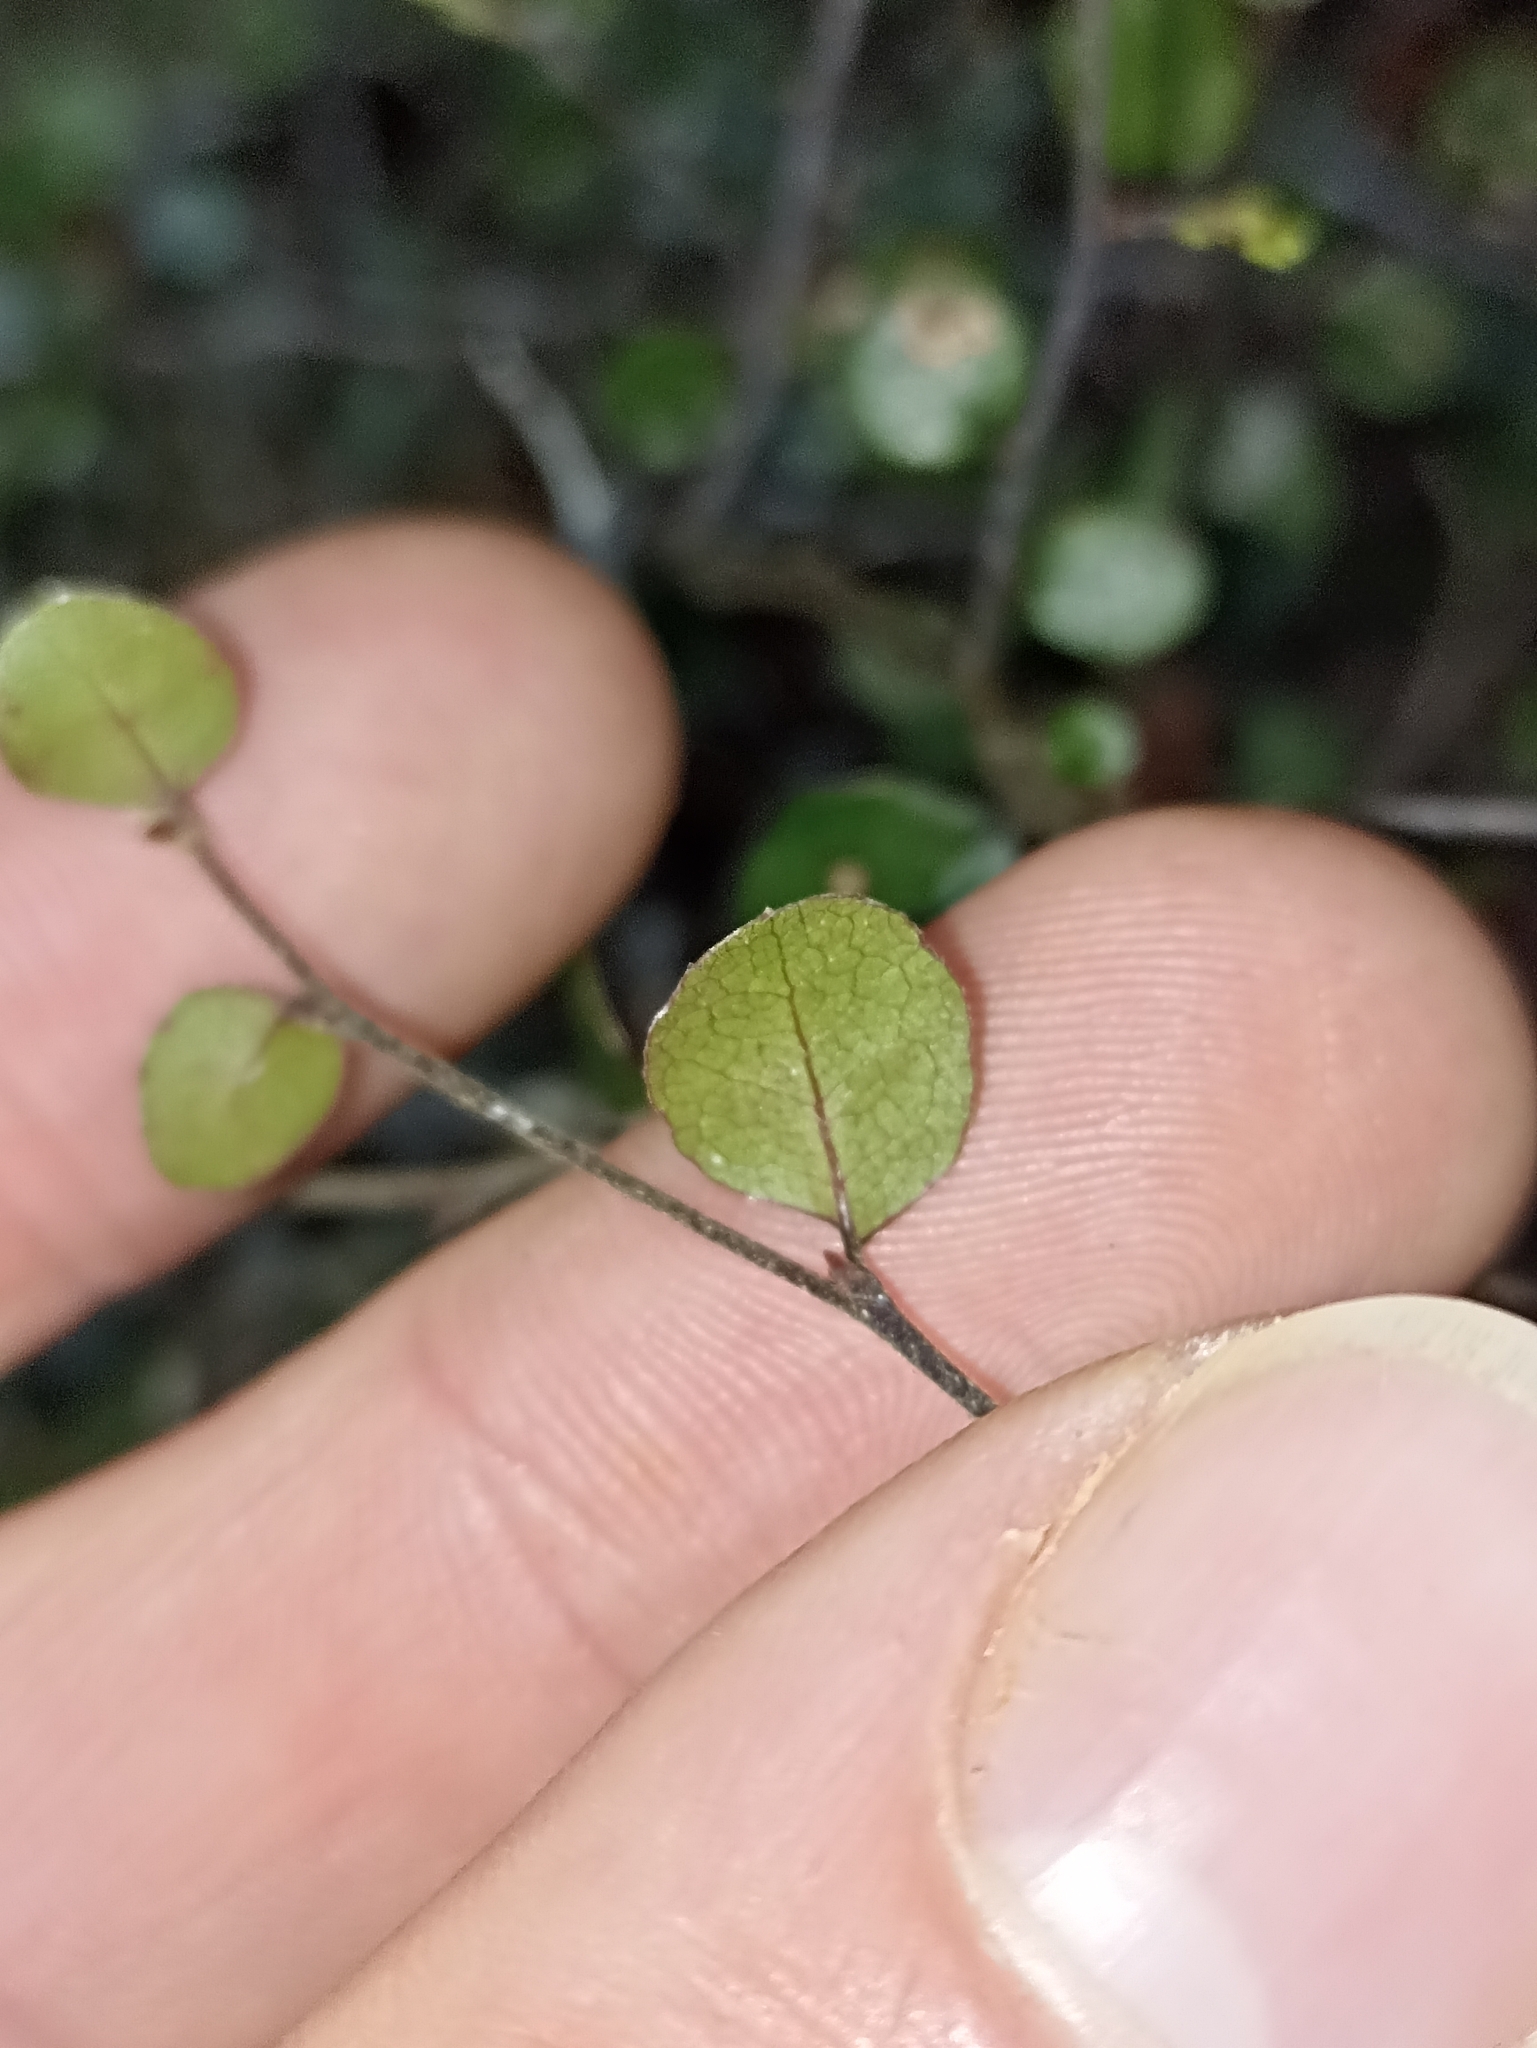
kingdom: Plantae
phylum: Tracheophyta
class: Magnoliopsida
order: Fagales
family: Nothofagaceae
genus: Nothofagus
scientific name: Nothofagus solandri
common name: Black beech
